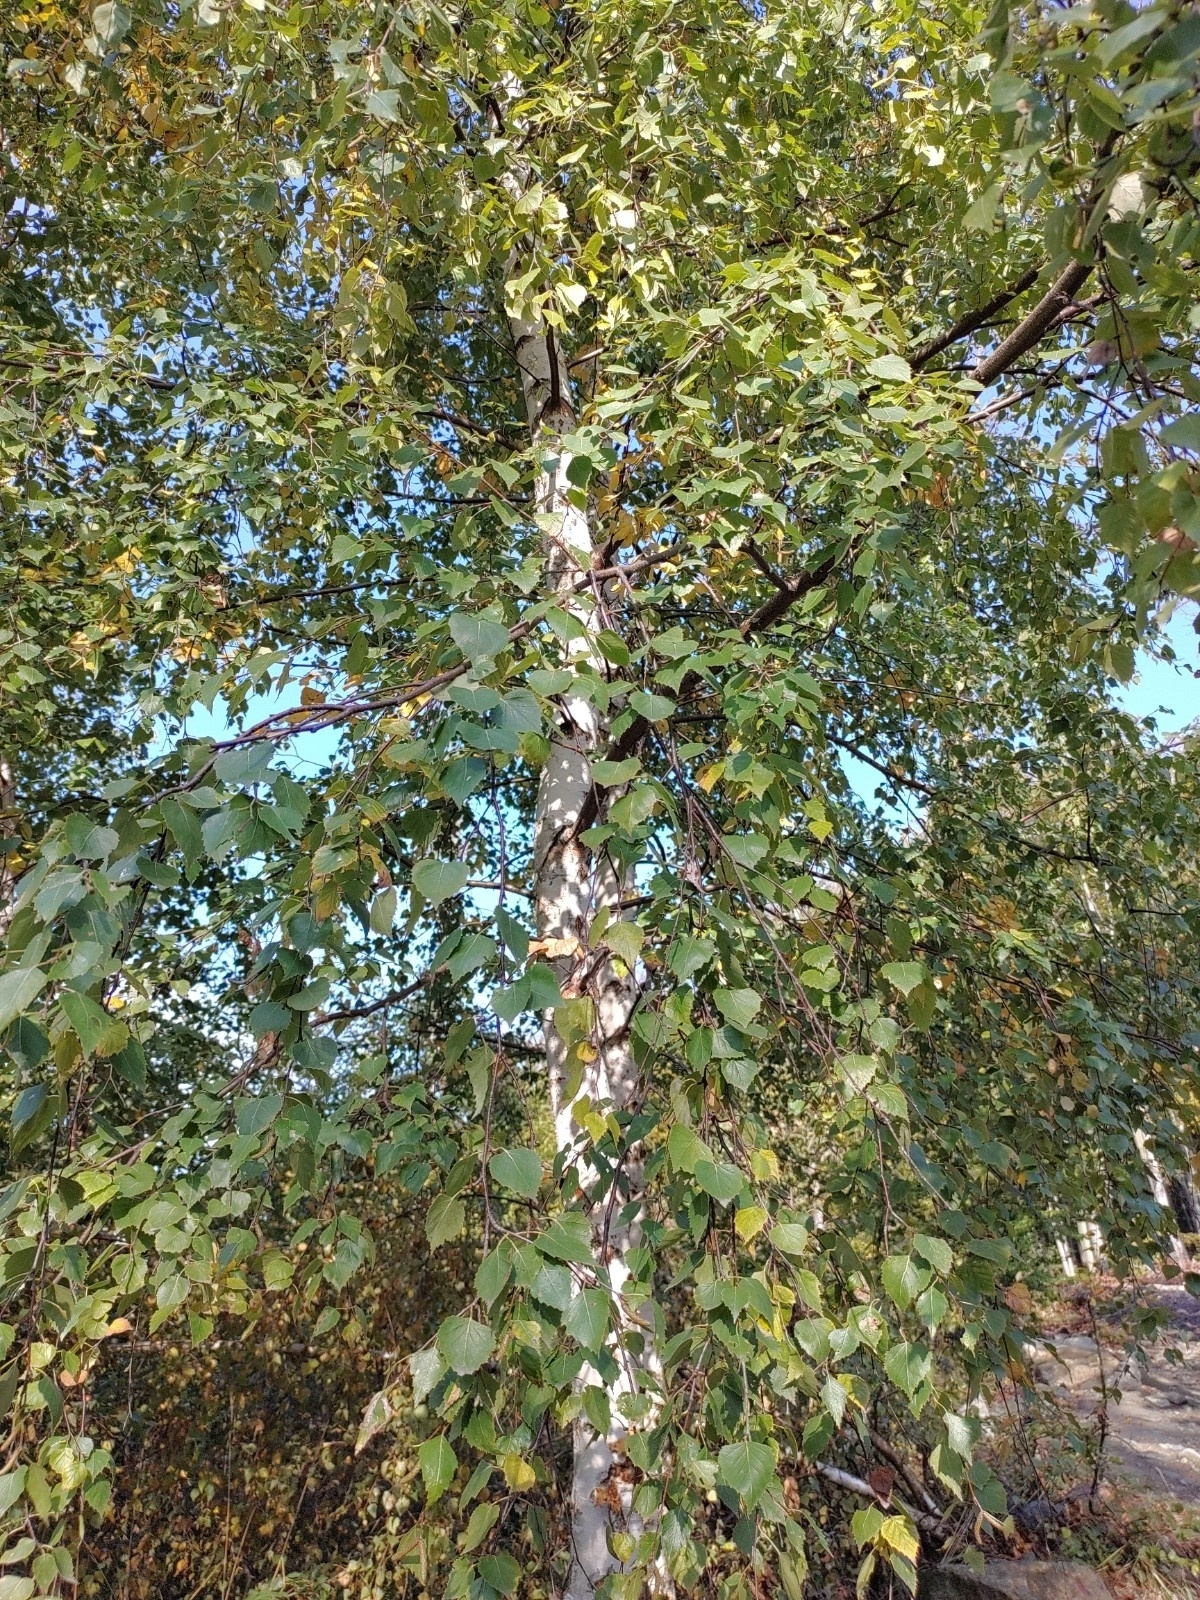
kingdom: Plantae
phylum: Tracheophyta
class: Magnoliopsida
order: Fagales
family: Betulaceae
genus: Betula
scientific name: Betula pendula
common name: Silver birch
